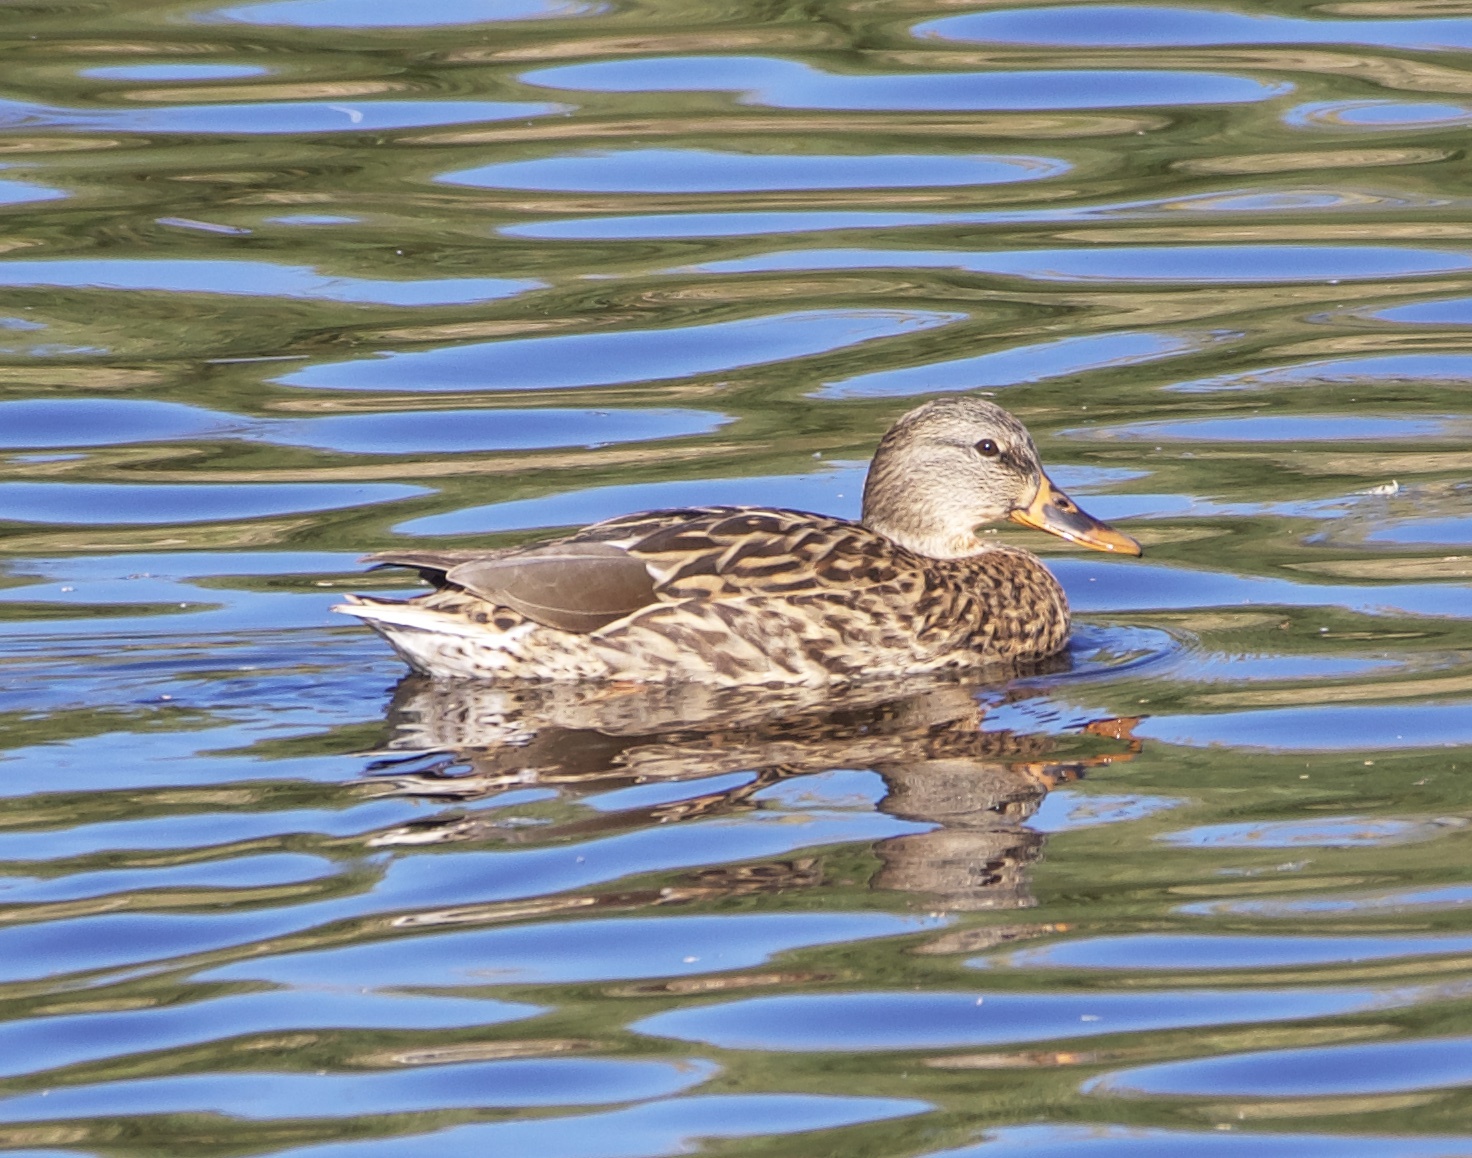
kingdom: Animalia
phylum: Chordata
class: Aves
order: Anseriformes
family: Anatidae
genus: Anas
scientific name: Anas platyrhynchos
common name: Mallard
